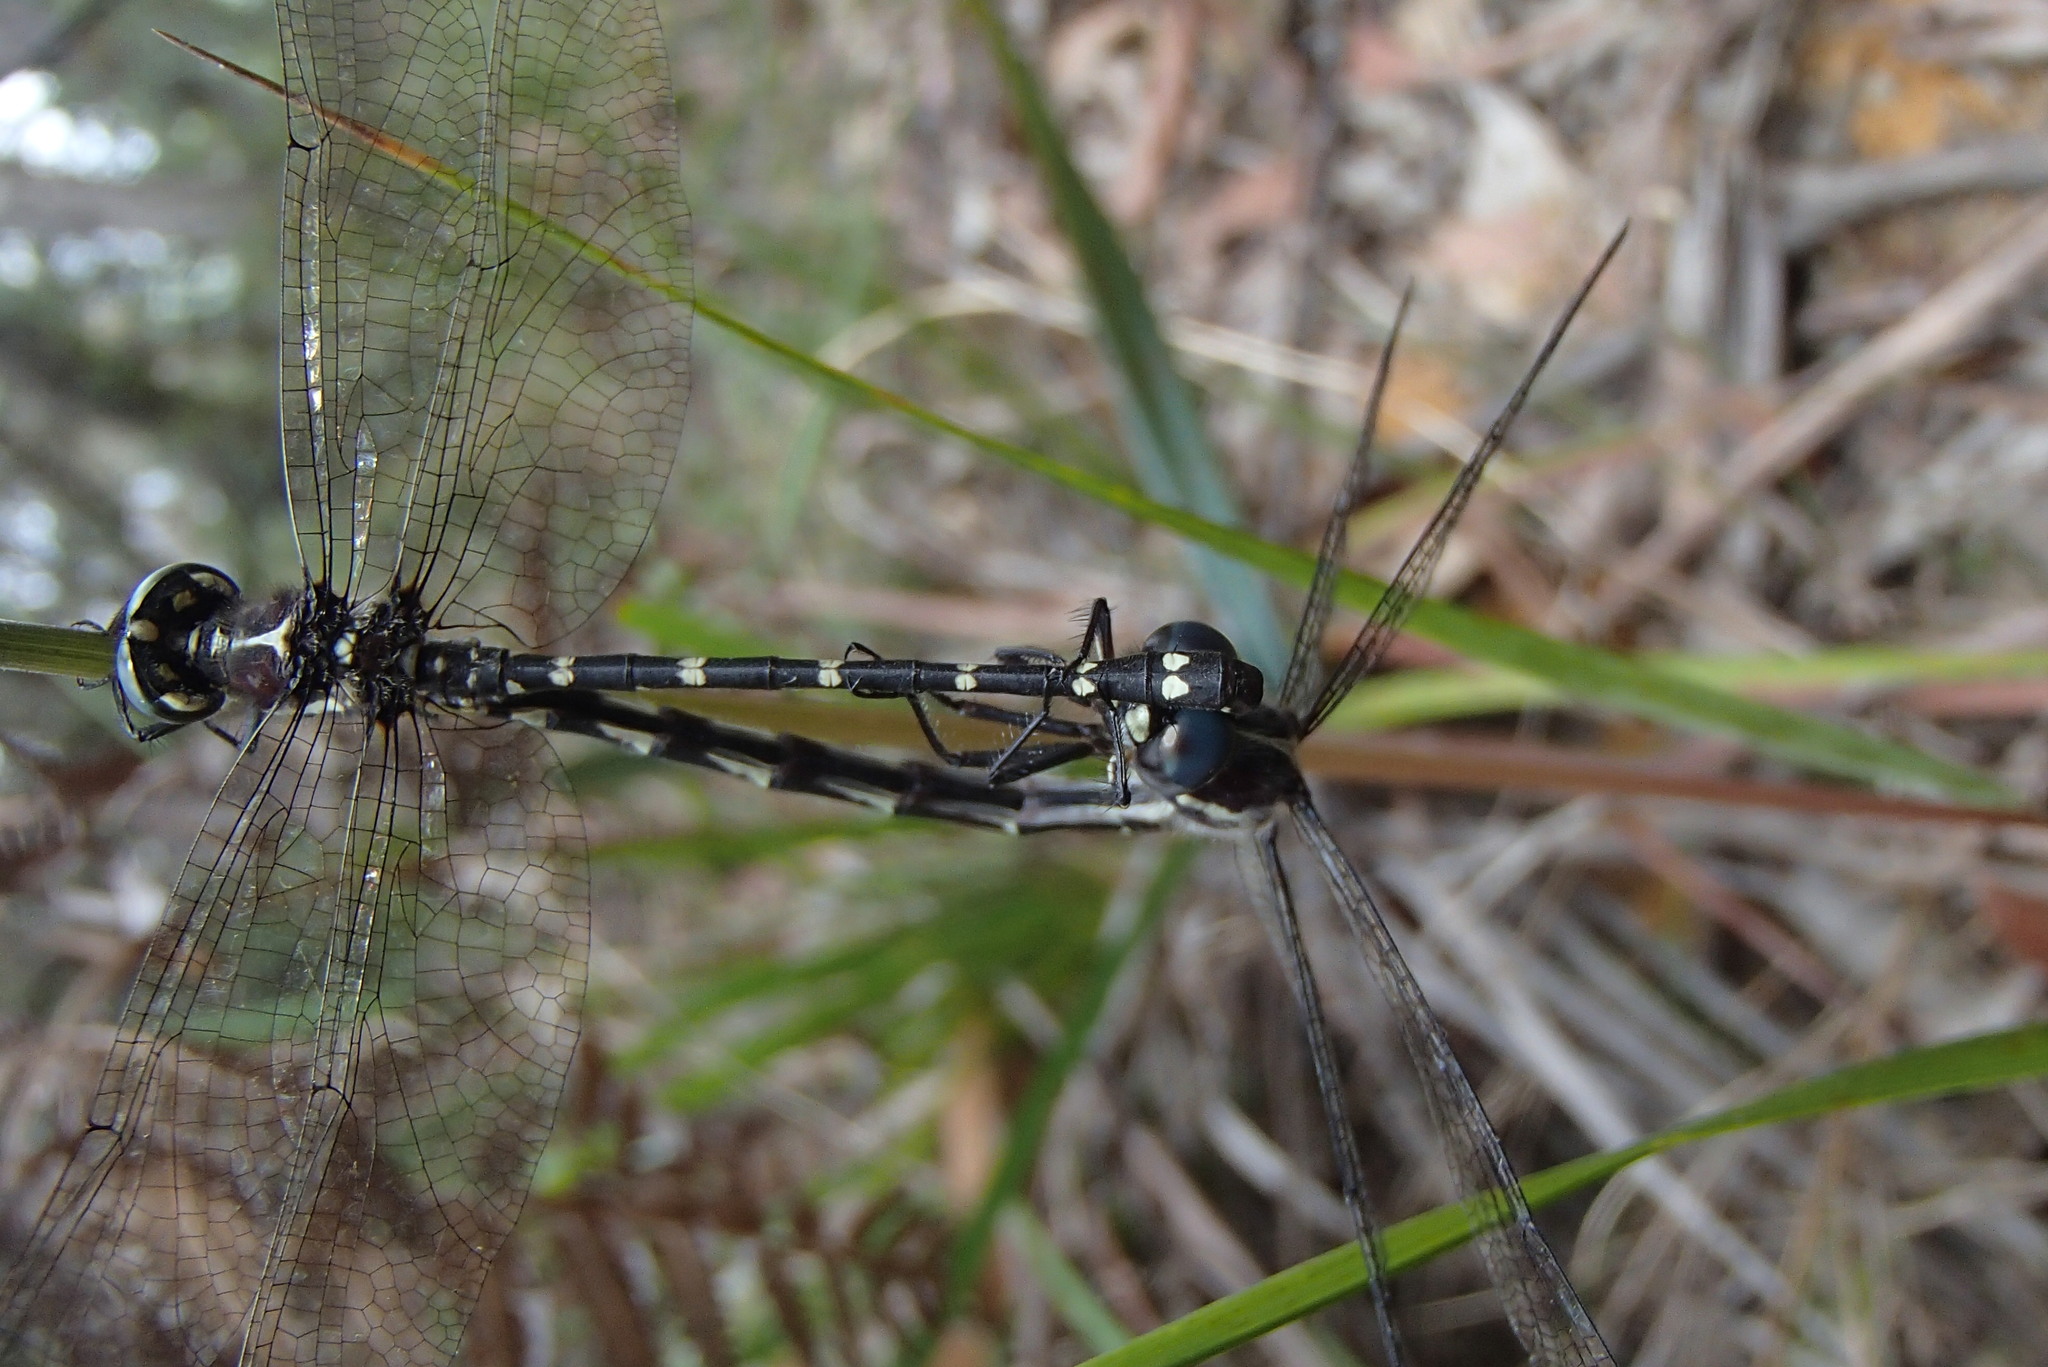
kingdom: Animalia
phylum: Arthropoda
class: Insecta
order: Odonata
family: Synthemistidae
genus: Eusynthemis
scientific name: Eusynthemis tillyardi
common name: Mountain tigertail
